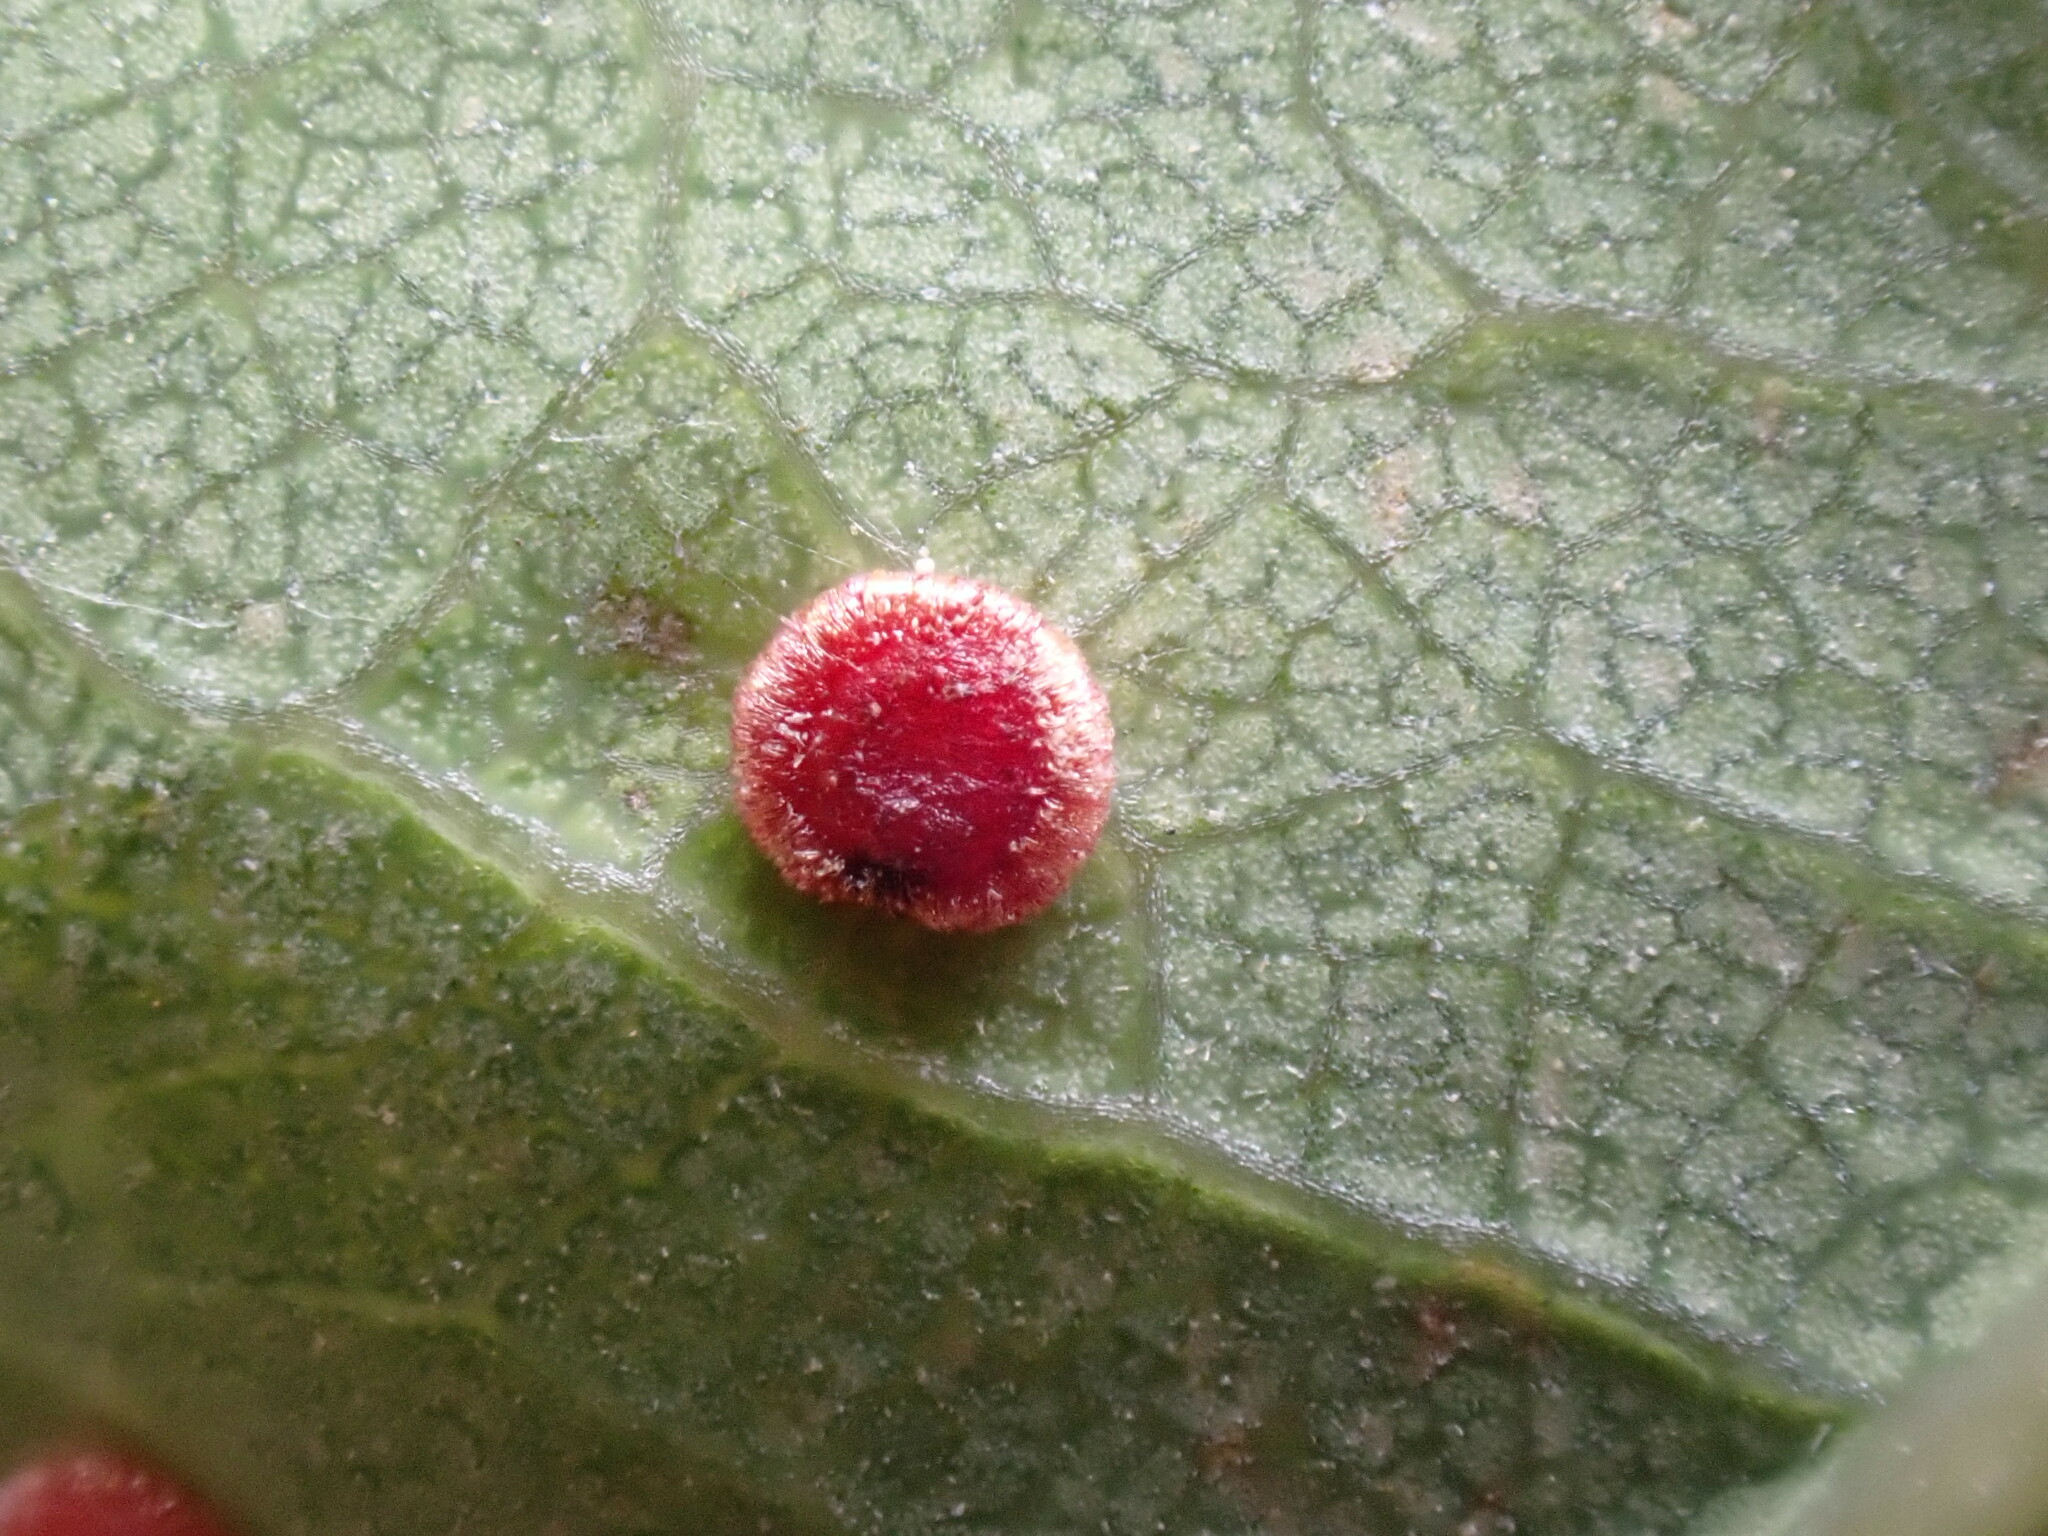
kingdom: Animalia
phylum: Arthropoda
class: Insecta
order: Hymenoptera
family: Cynipidae
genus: Neuroterus
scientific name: Neuroterus numismalis
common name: Silk-button spangle gall
